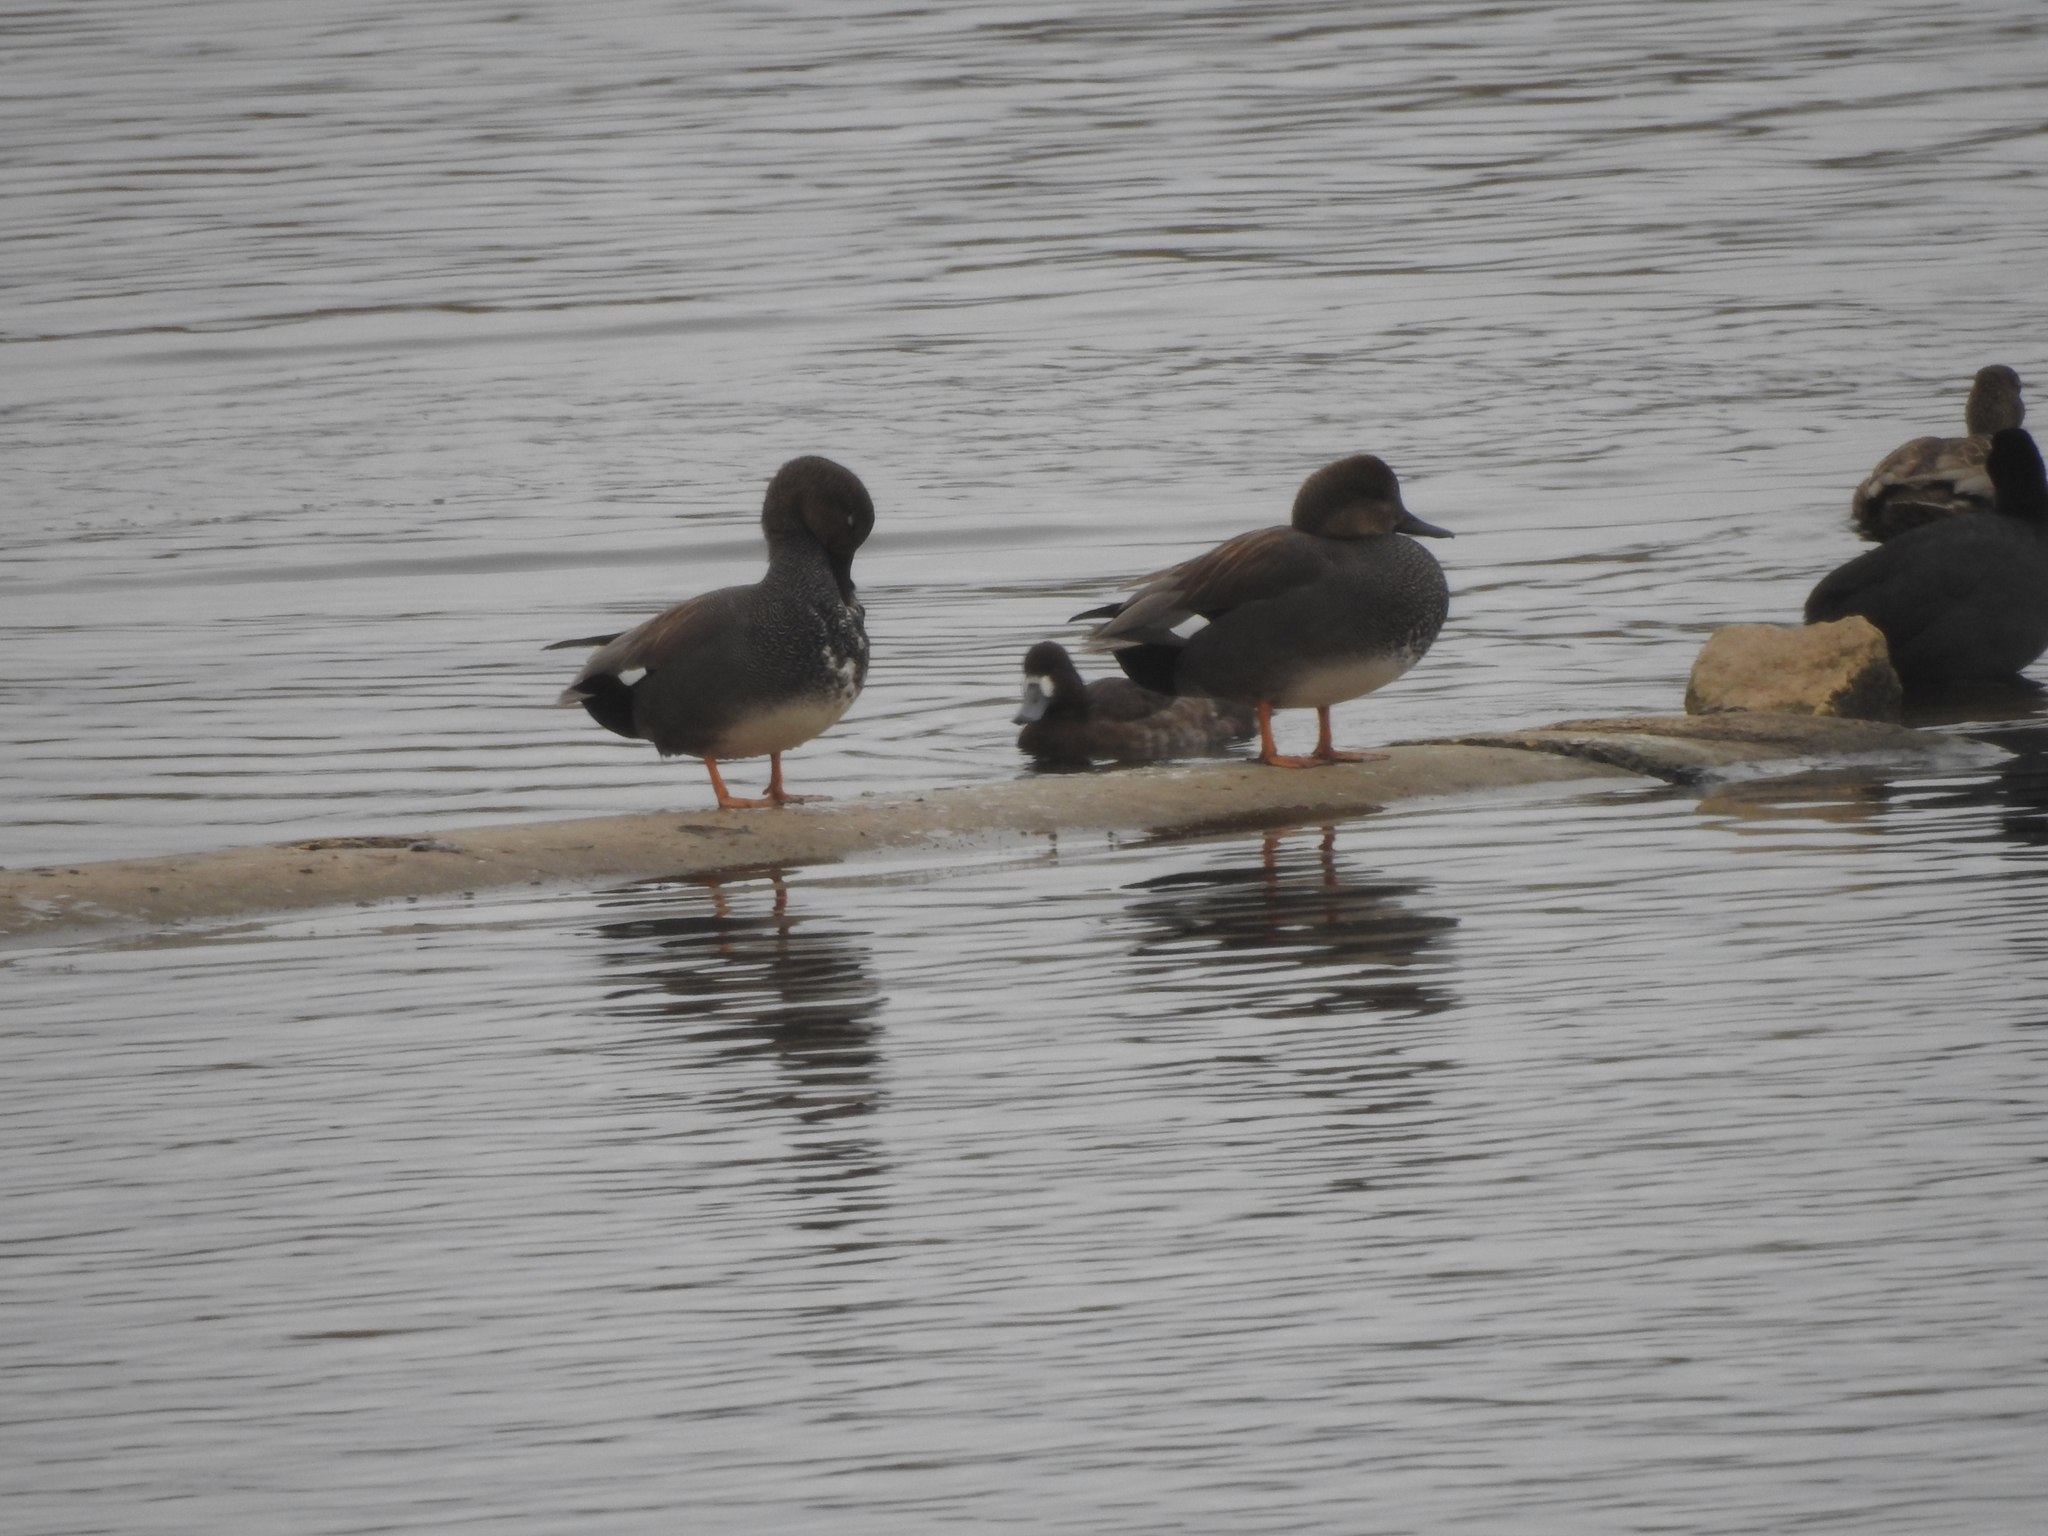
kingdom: Animalia
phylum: Chordata
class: Aves
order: Anseriformes
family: Anatidae
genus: Mareca
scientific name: Mareca strepera
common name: Gadwall
